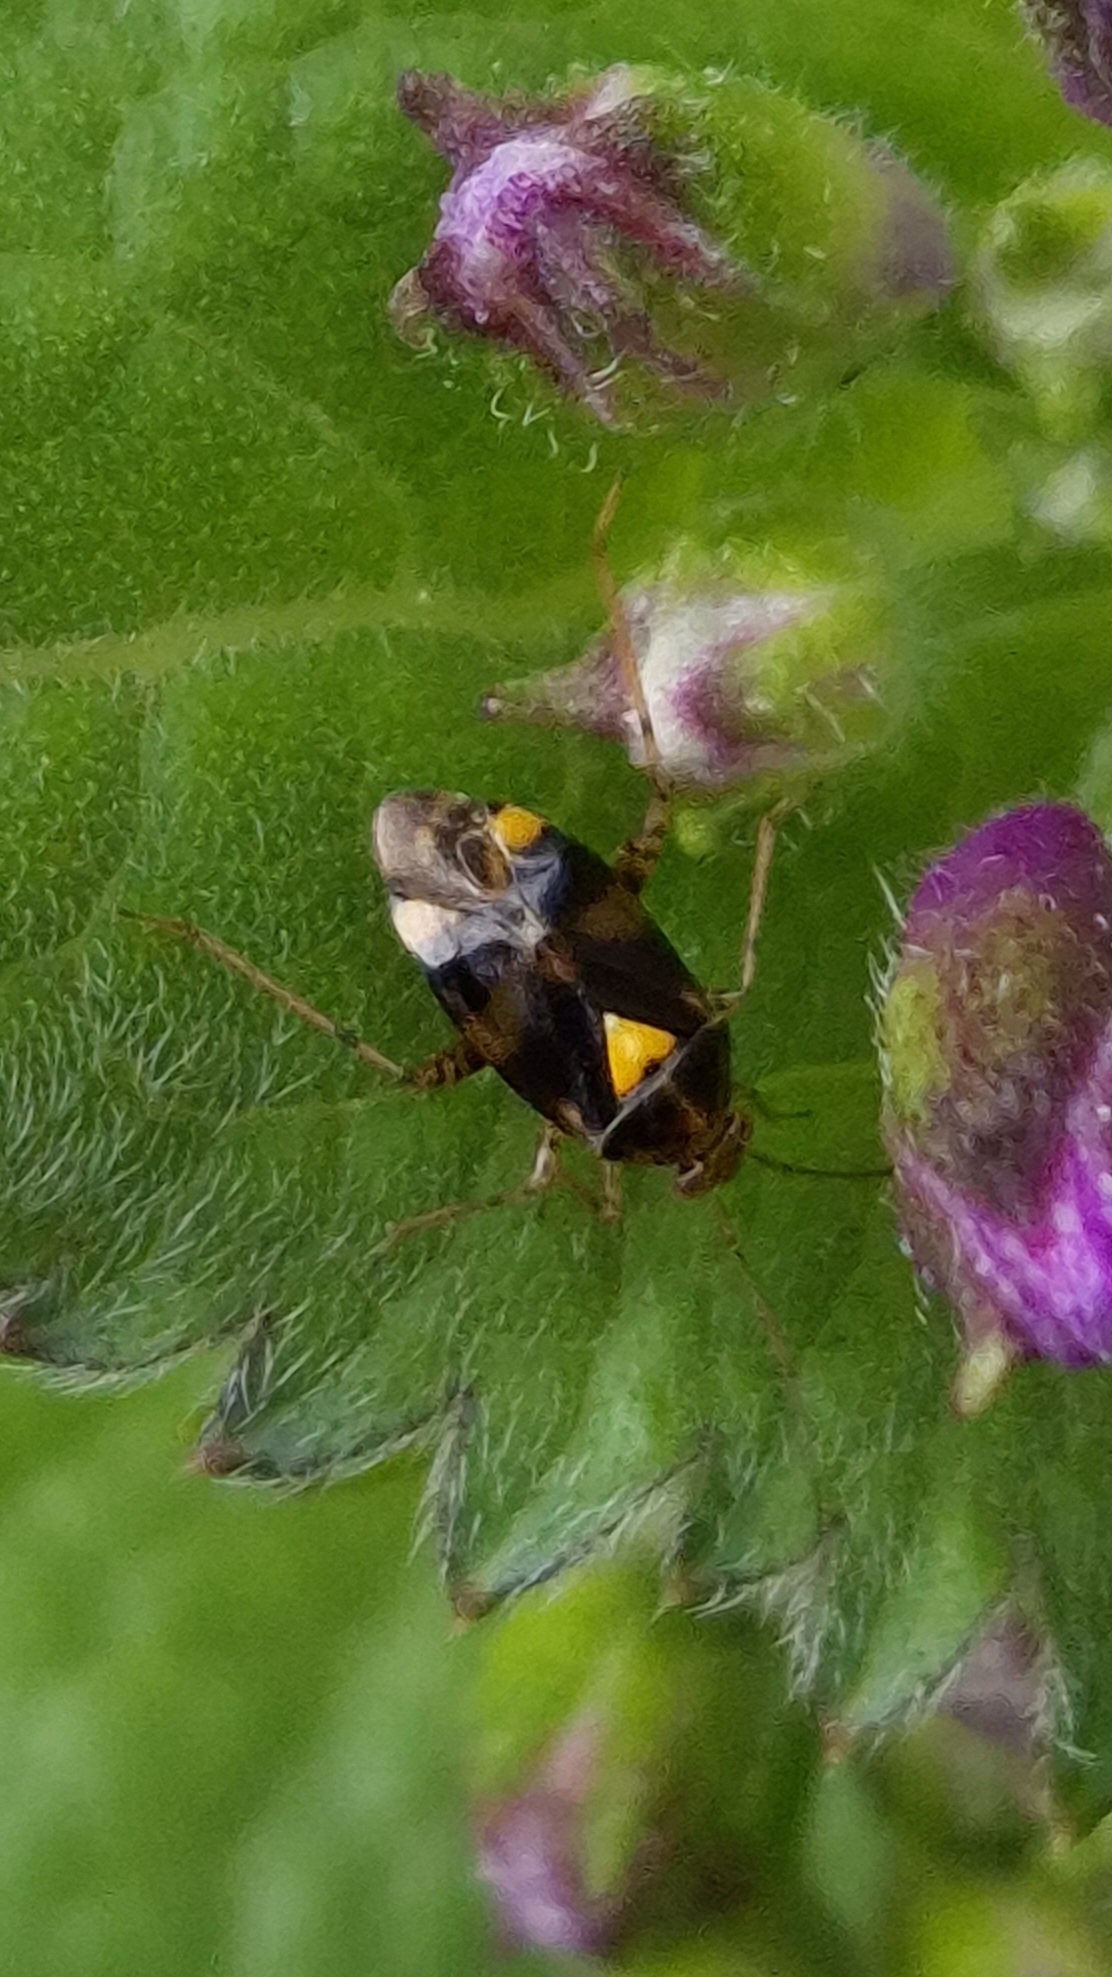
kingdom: Animalia
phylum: Arthropoda
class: Insecta
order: Hemiptera
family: Miridae
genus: Liocoris
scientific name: Liocoris tripustulatus
